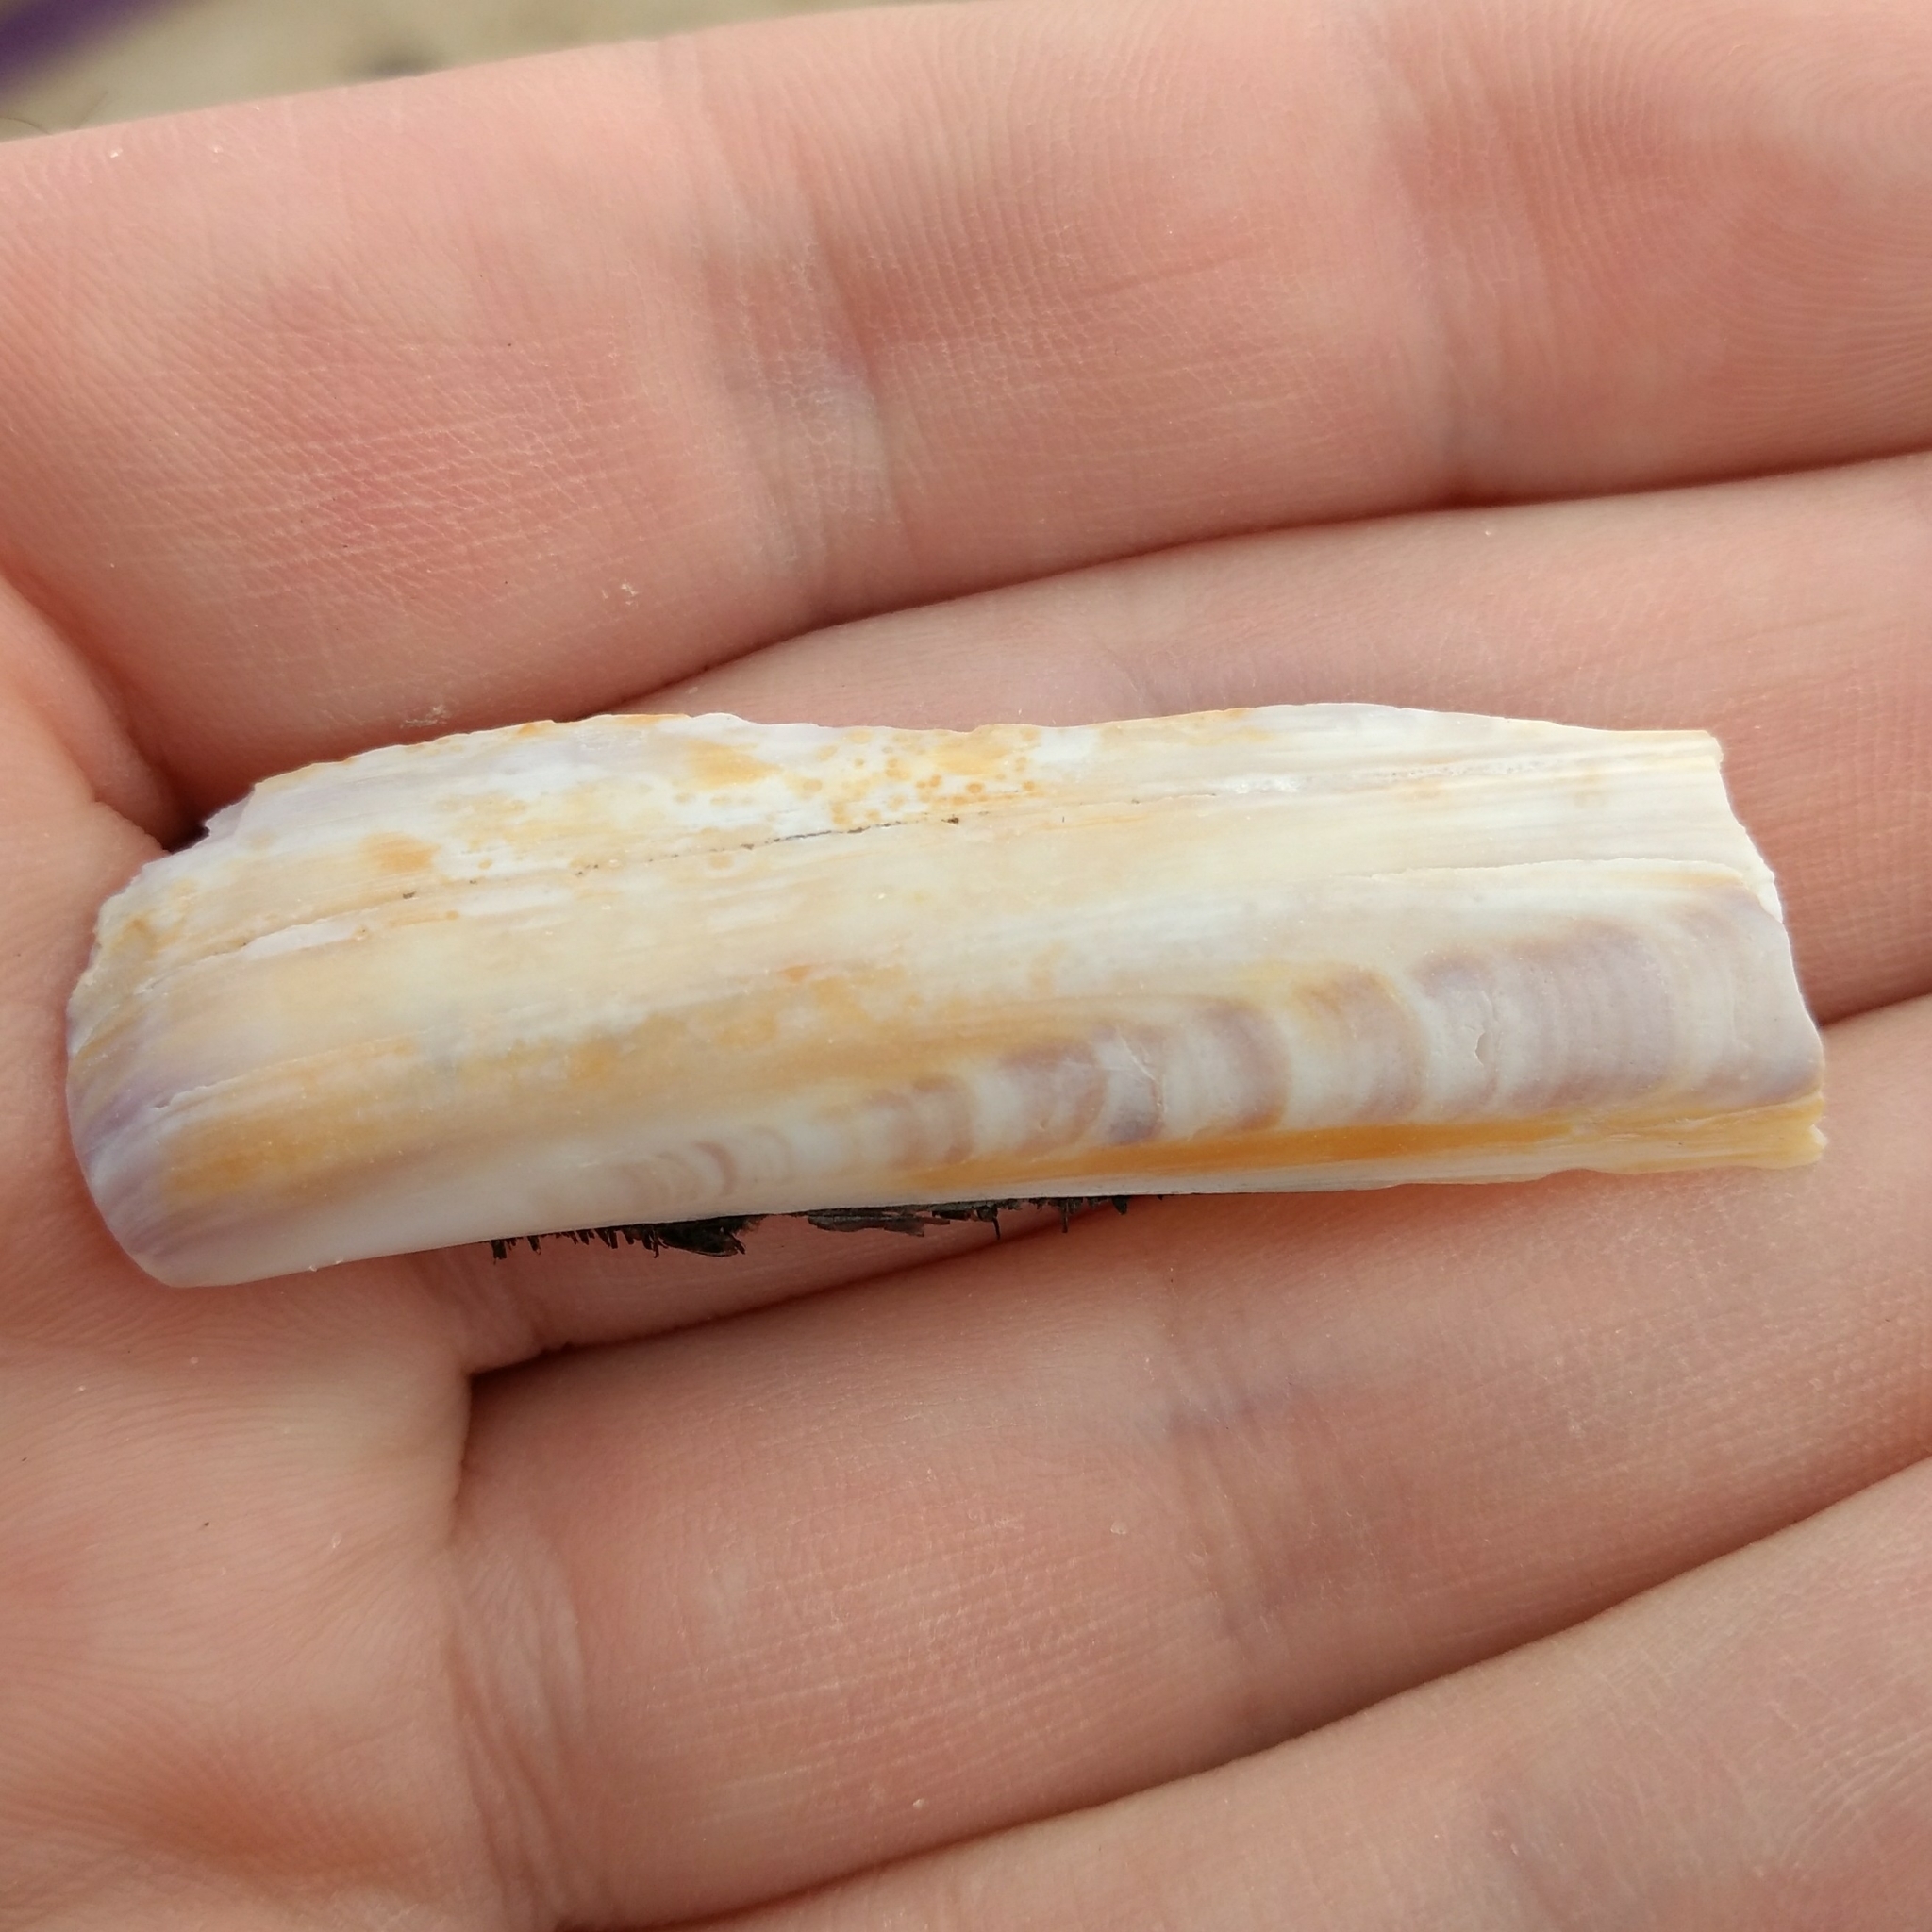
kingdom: Animalia
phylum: Mollusca
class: Bivalvia
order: Adapedonta
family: Pharidae
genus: Ensis
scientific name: Ensis leei
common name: American jack knife clam
